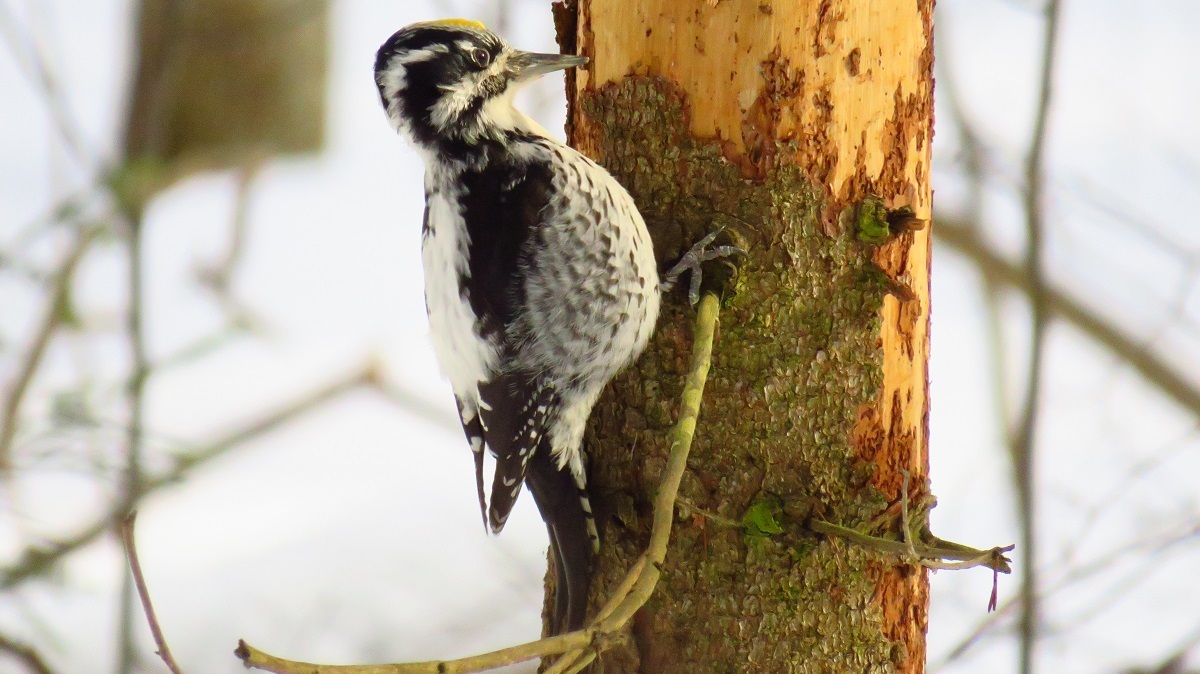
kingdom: Animalia
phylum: Chordata
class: Aves
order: Piciformes
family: Picidae
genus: Picoides
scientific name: Picoides tridactylus
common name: Eurasian three-toed woodpecker
